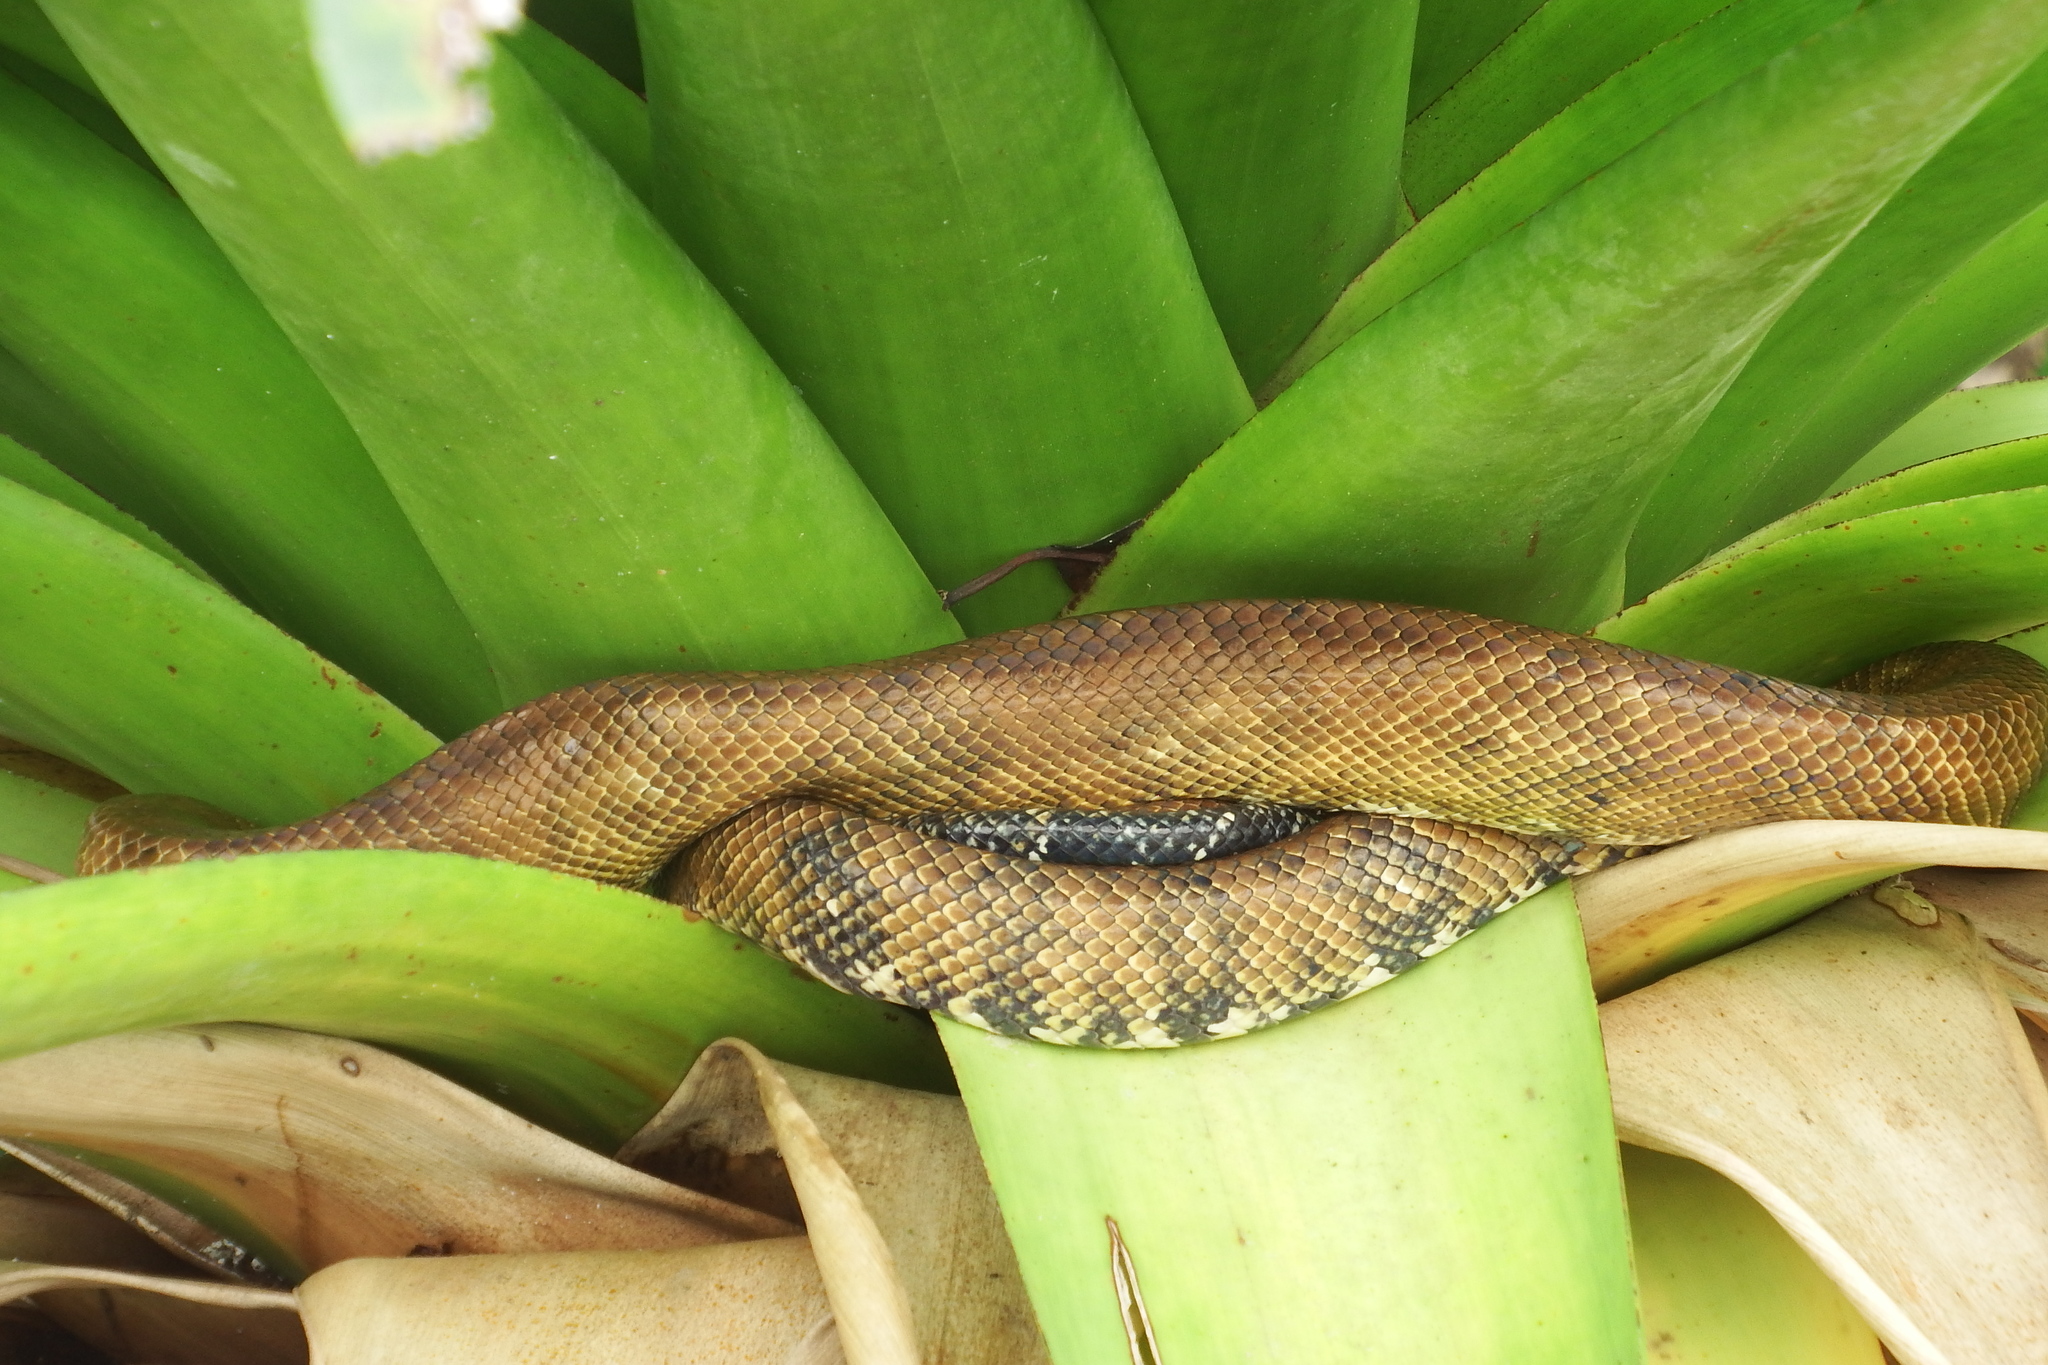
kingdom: Animalia
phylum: Chordata
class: Squamata
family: Boidae
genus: Corallus
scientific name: Corallus ruschenbergerii
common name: Dormilona
